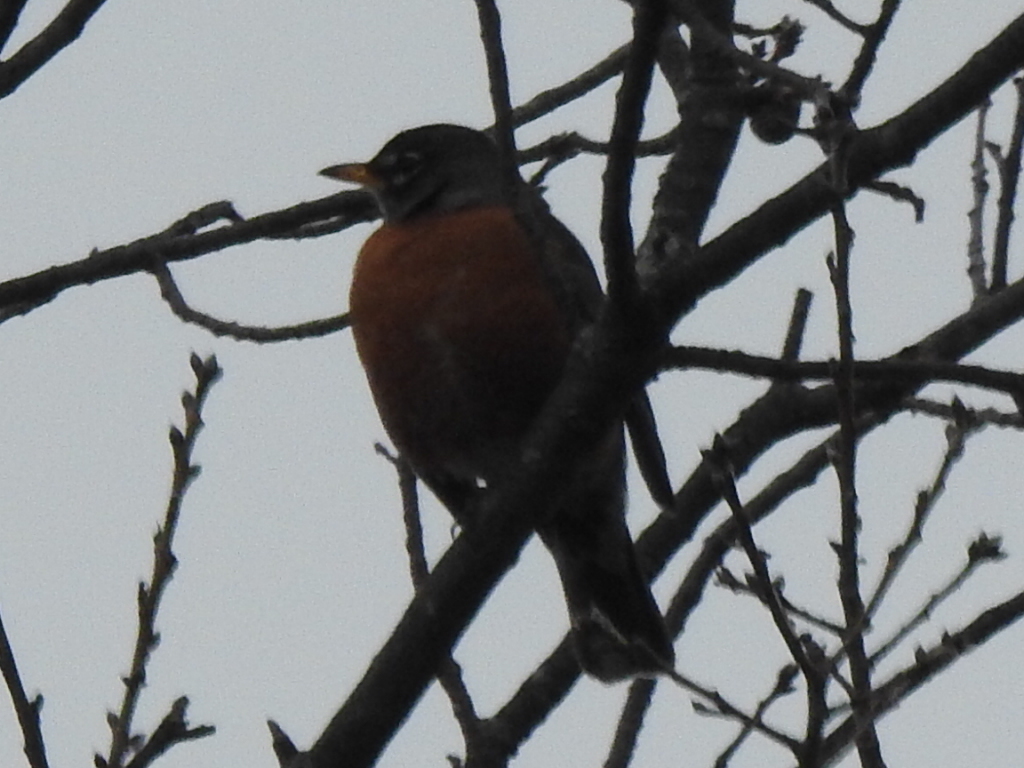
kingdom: Animalia
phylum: Chordata
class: Aves
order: Passeriformes
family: Turdidae
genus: Turdus
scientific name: Turdus migratorius
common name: American robin
